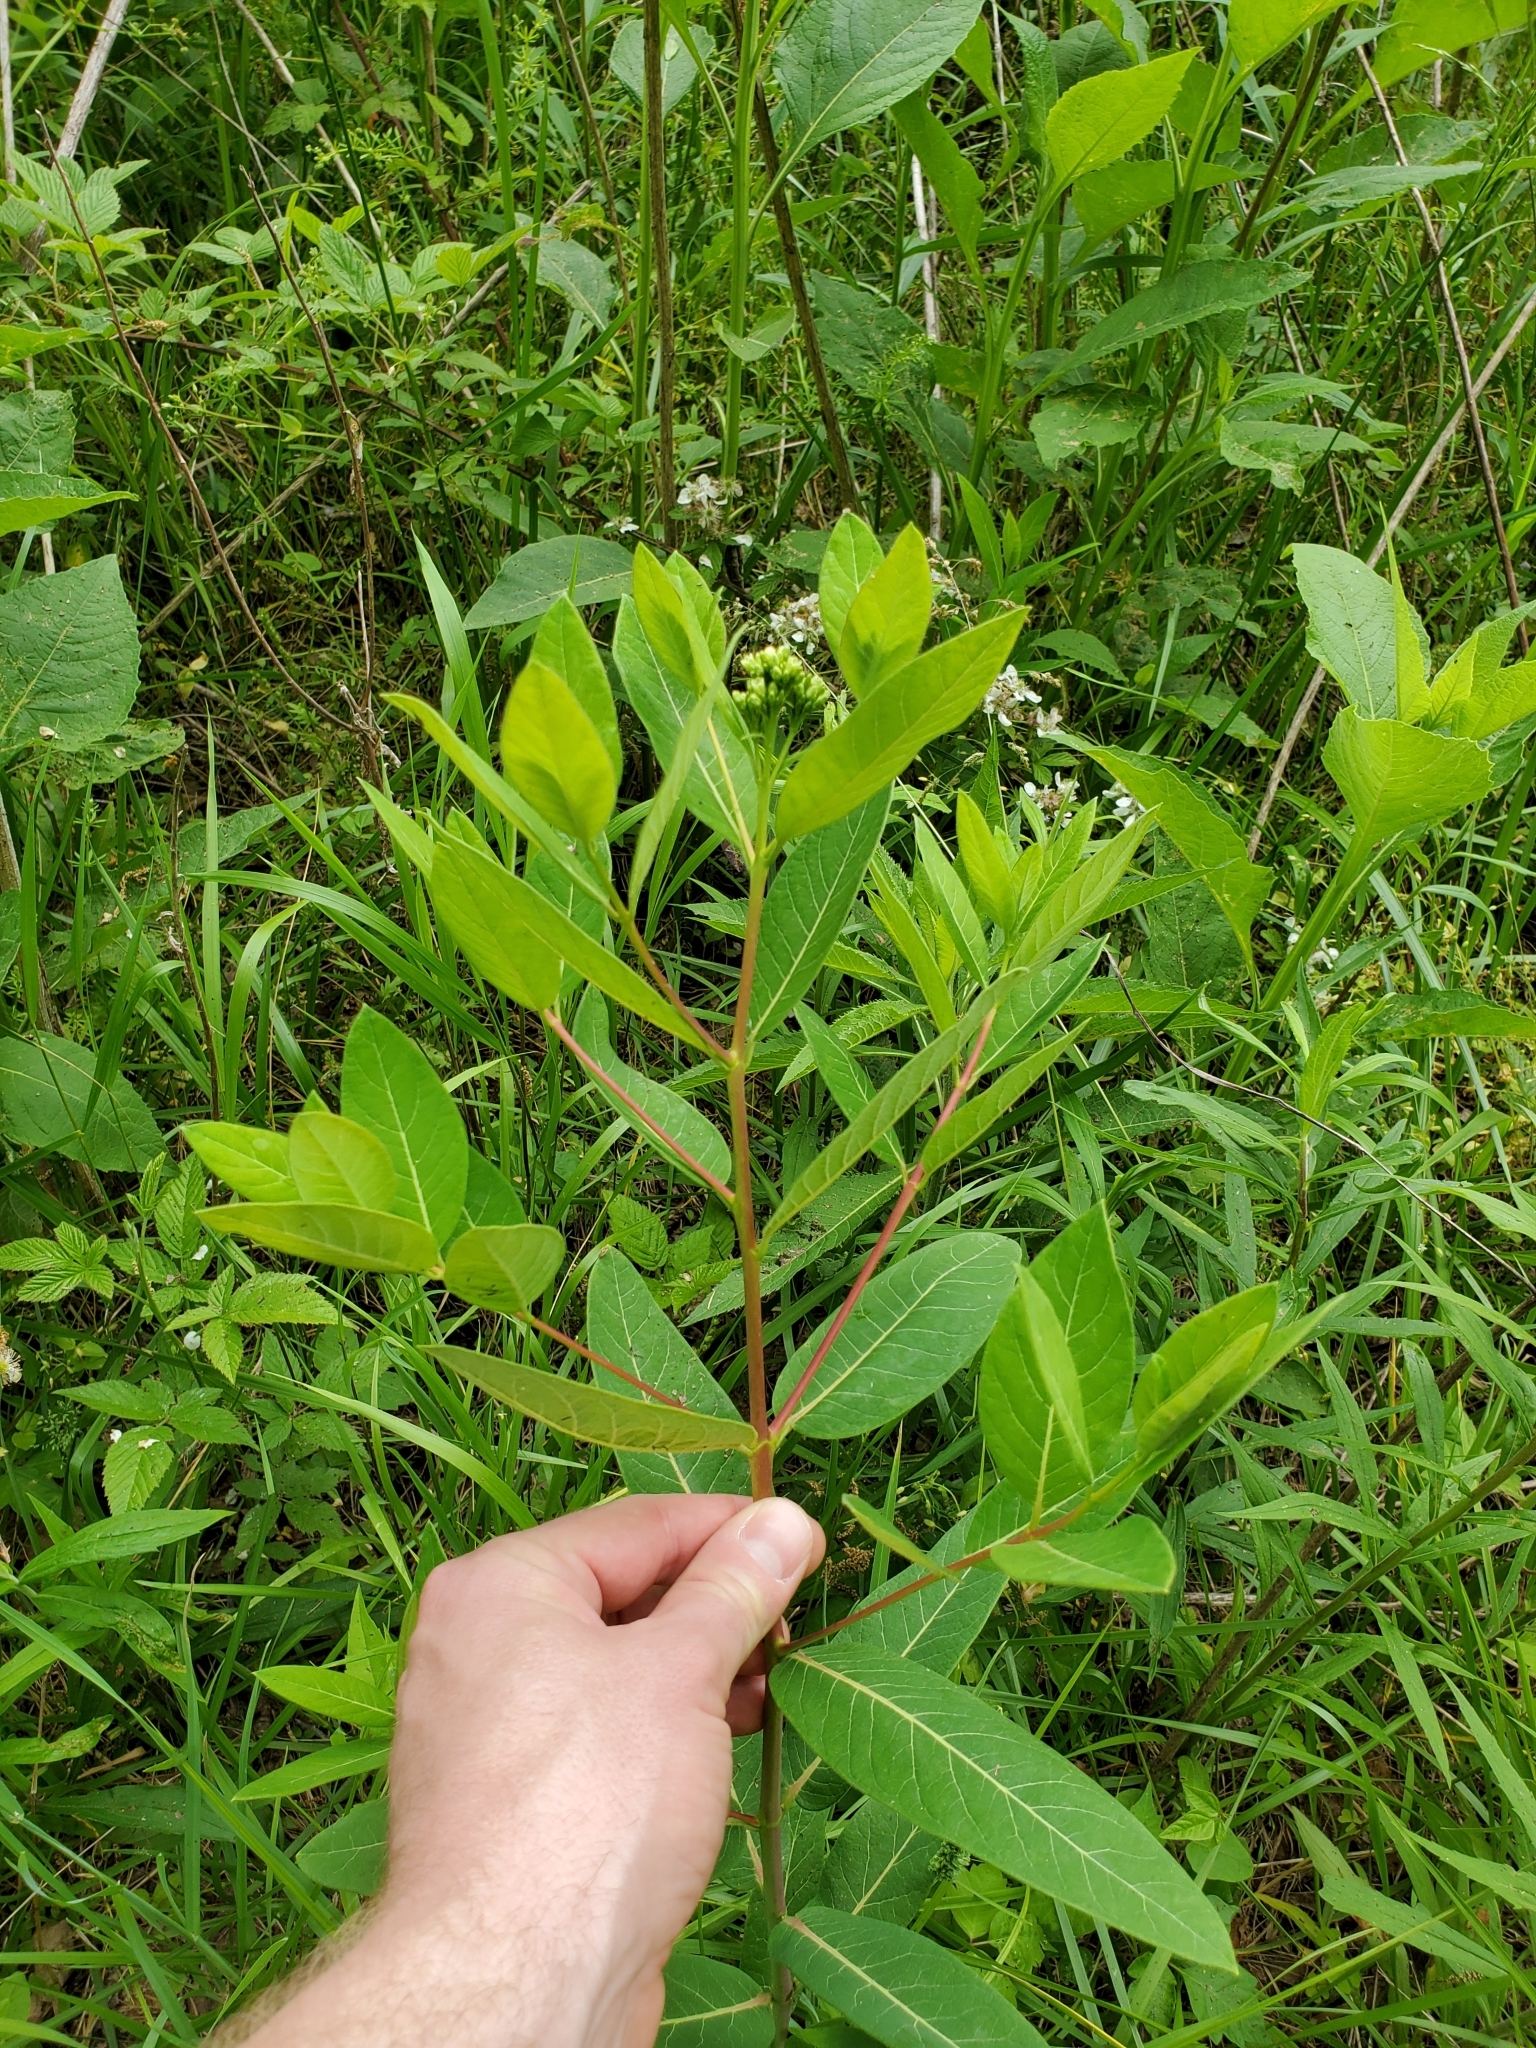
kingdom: Plantae
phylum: Tracheophyta
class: Magnoliopsida
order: Gentianales
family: Apocynaceae
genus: Apocynum
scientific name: Apocynum cannabinum
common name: Hemp dogbane
